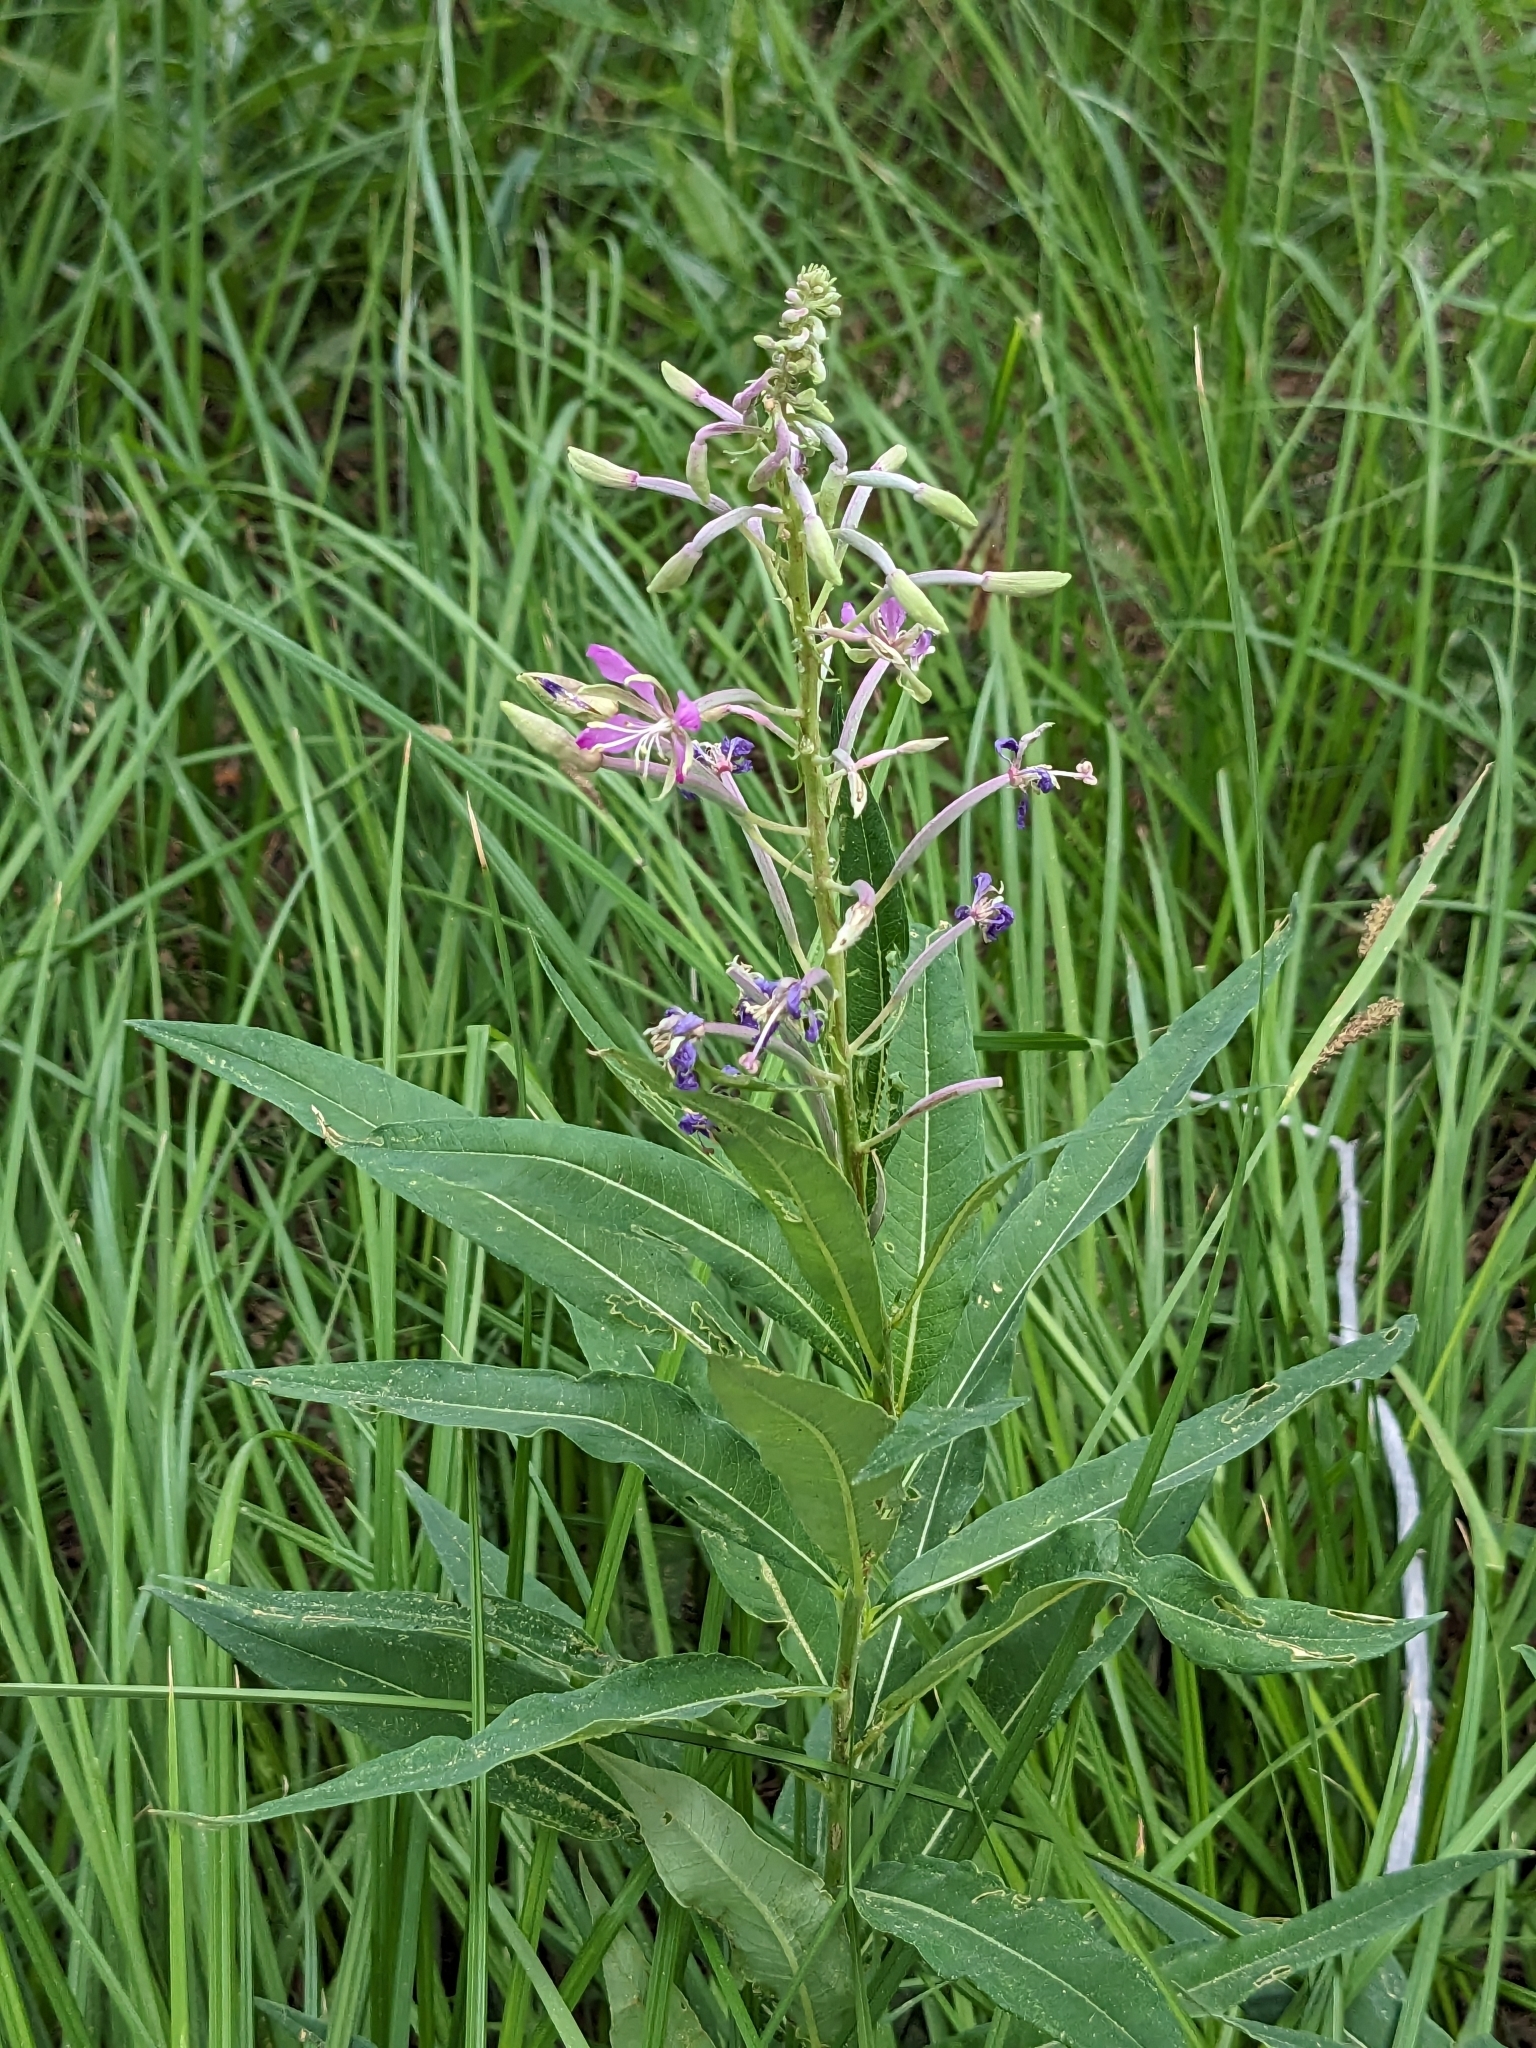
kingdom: Plantae
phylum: Tracheophyta
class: Magnoliopsida
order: Myrtales
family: Onagraceae
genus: Chamaenerion
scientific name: Chamaenerion angustifolium
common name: Fireweed
